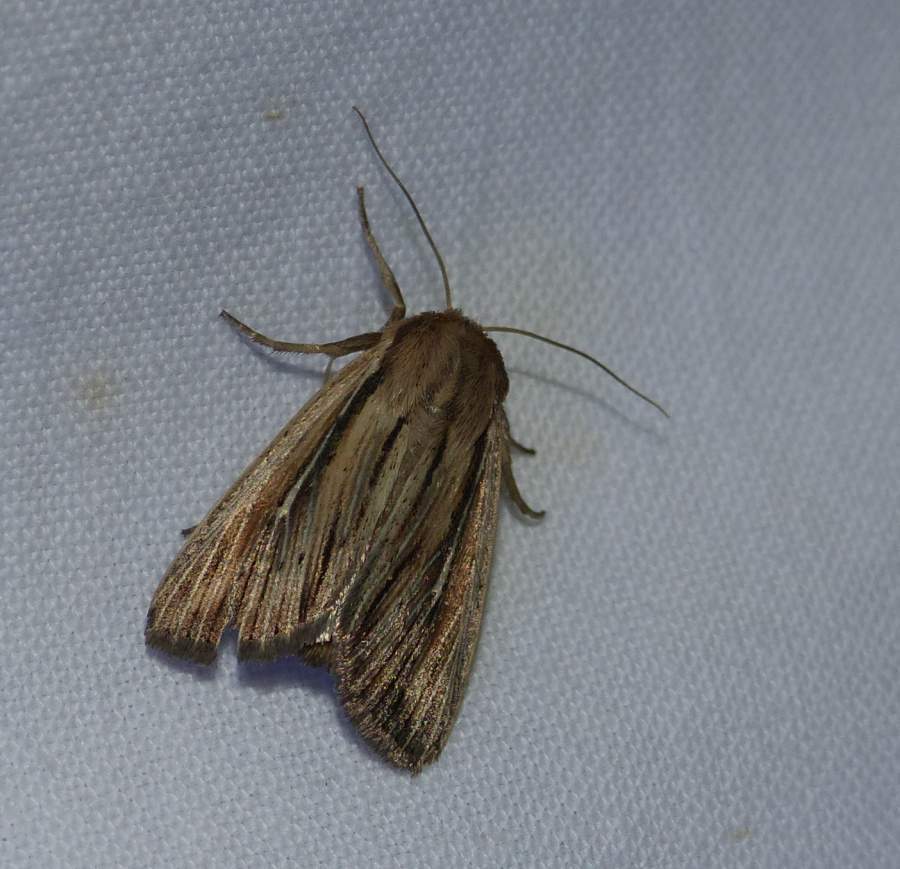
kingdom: Animalia
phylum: Arthropoda
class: Insecta
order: Lepidoptera
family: Noctuidae
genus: Leucania
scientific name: Leucania commoides
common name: Two-lined wainscot
